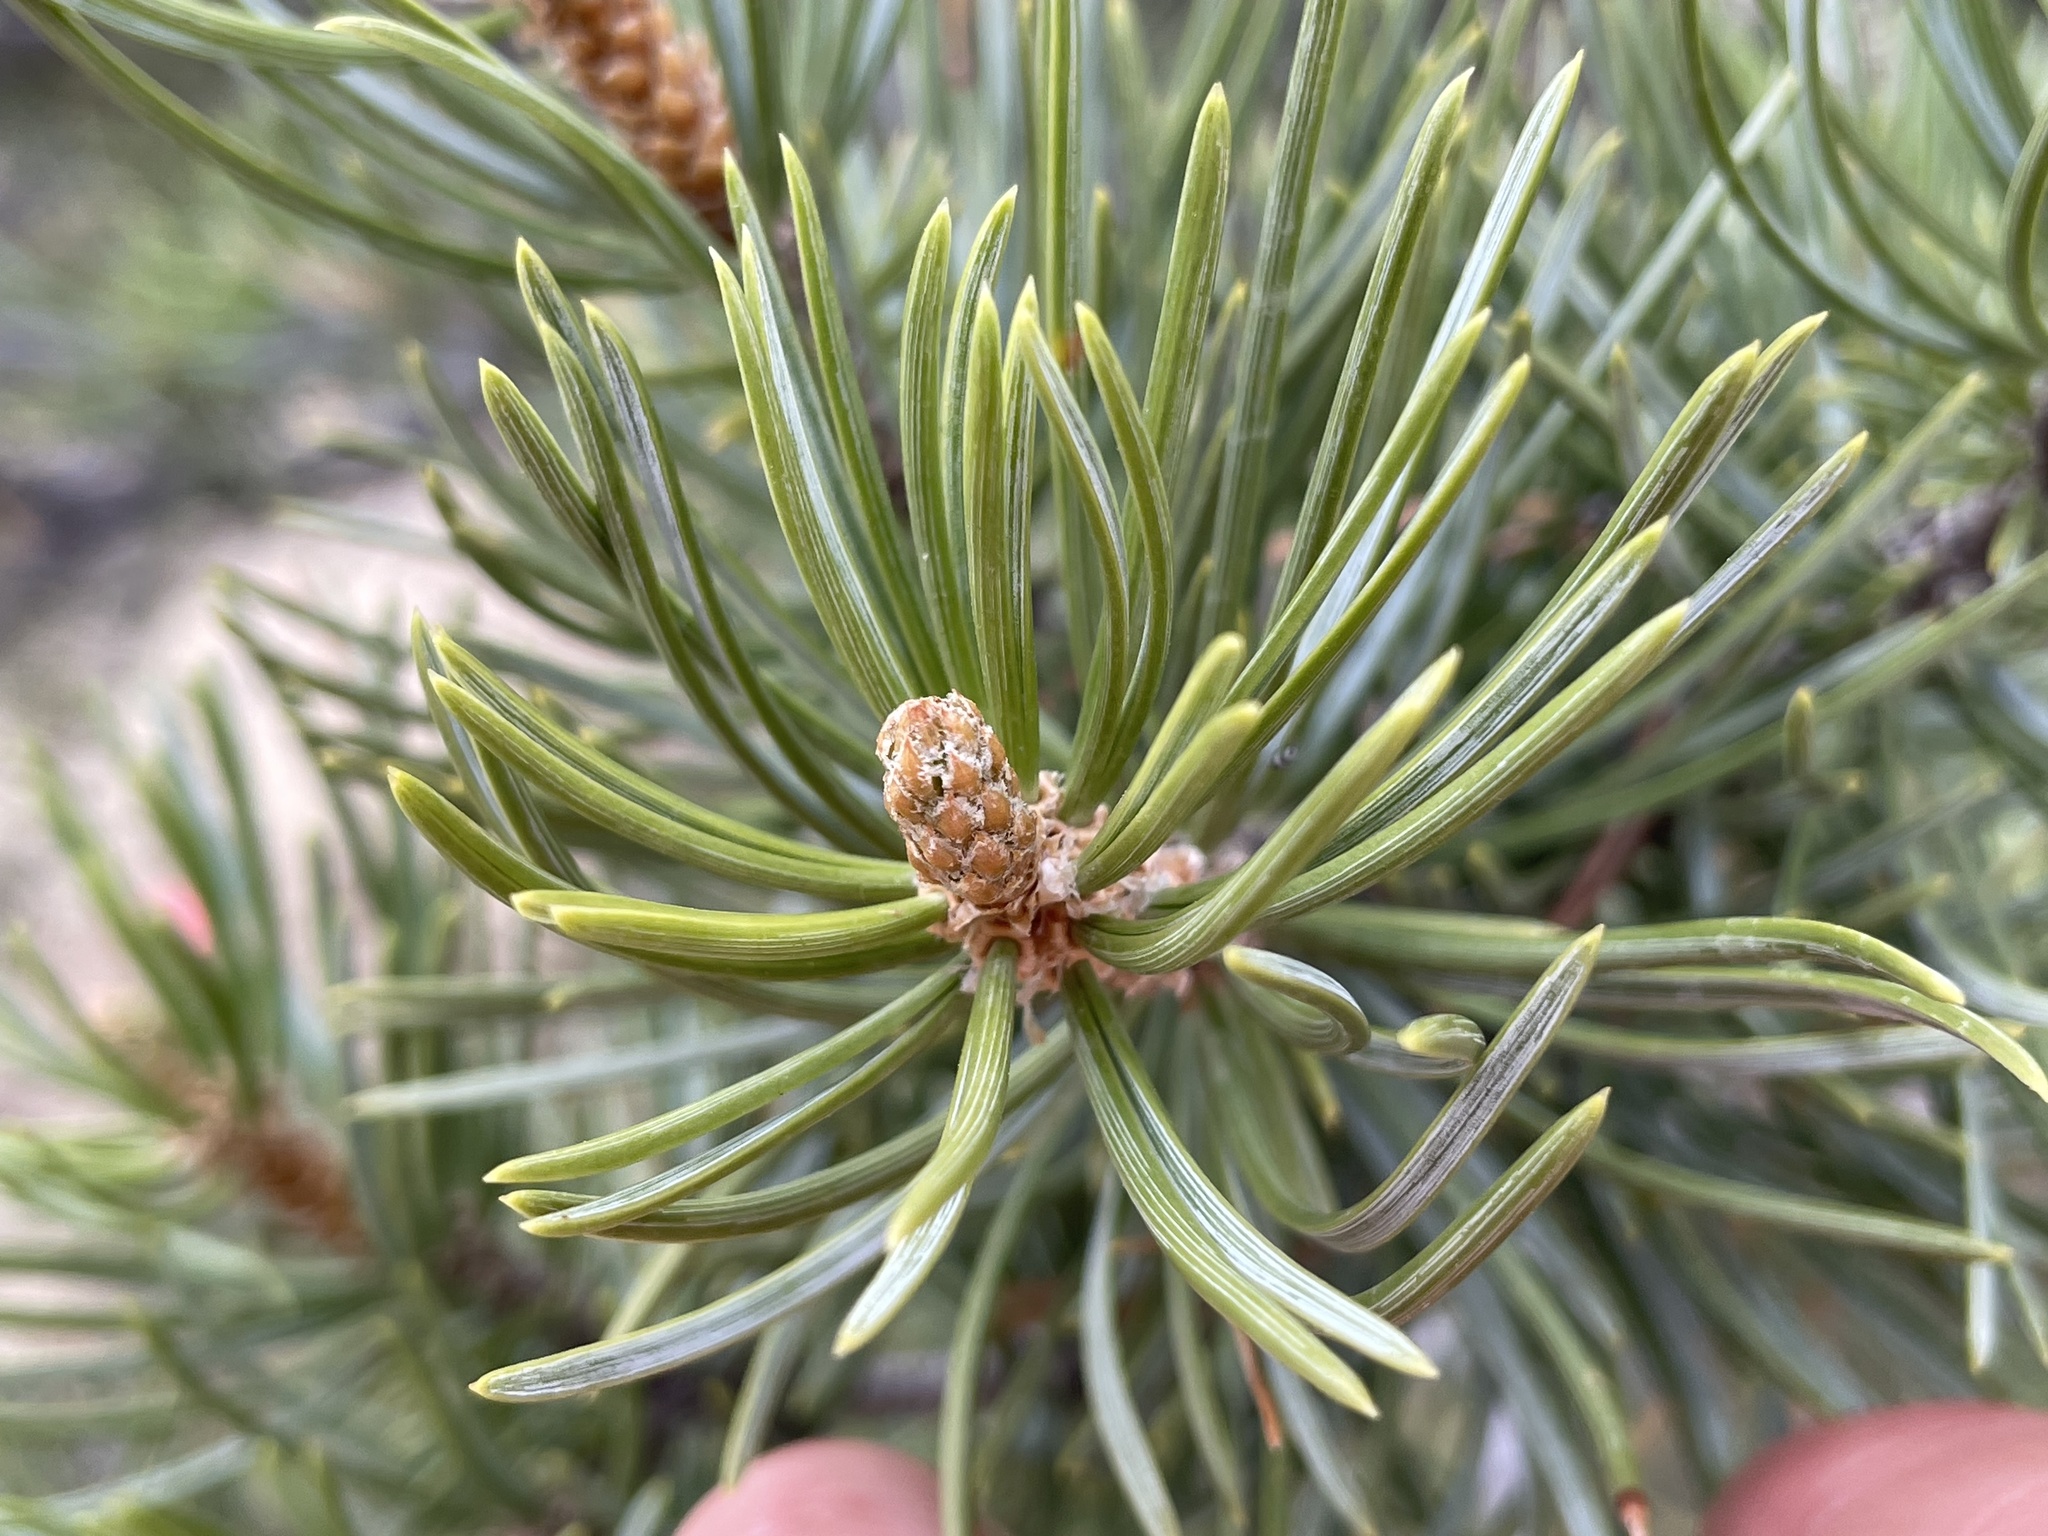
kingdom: Plantae
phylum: Tracheophyta
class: Pinopsida
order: Pinales
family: Pinaceae
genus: Pinus
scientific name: Pinus edulis
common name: Colorado pinyon
